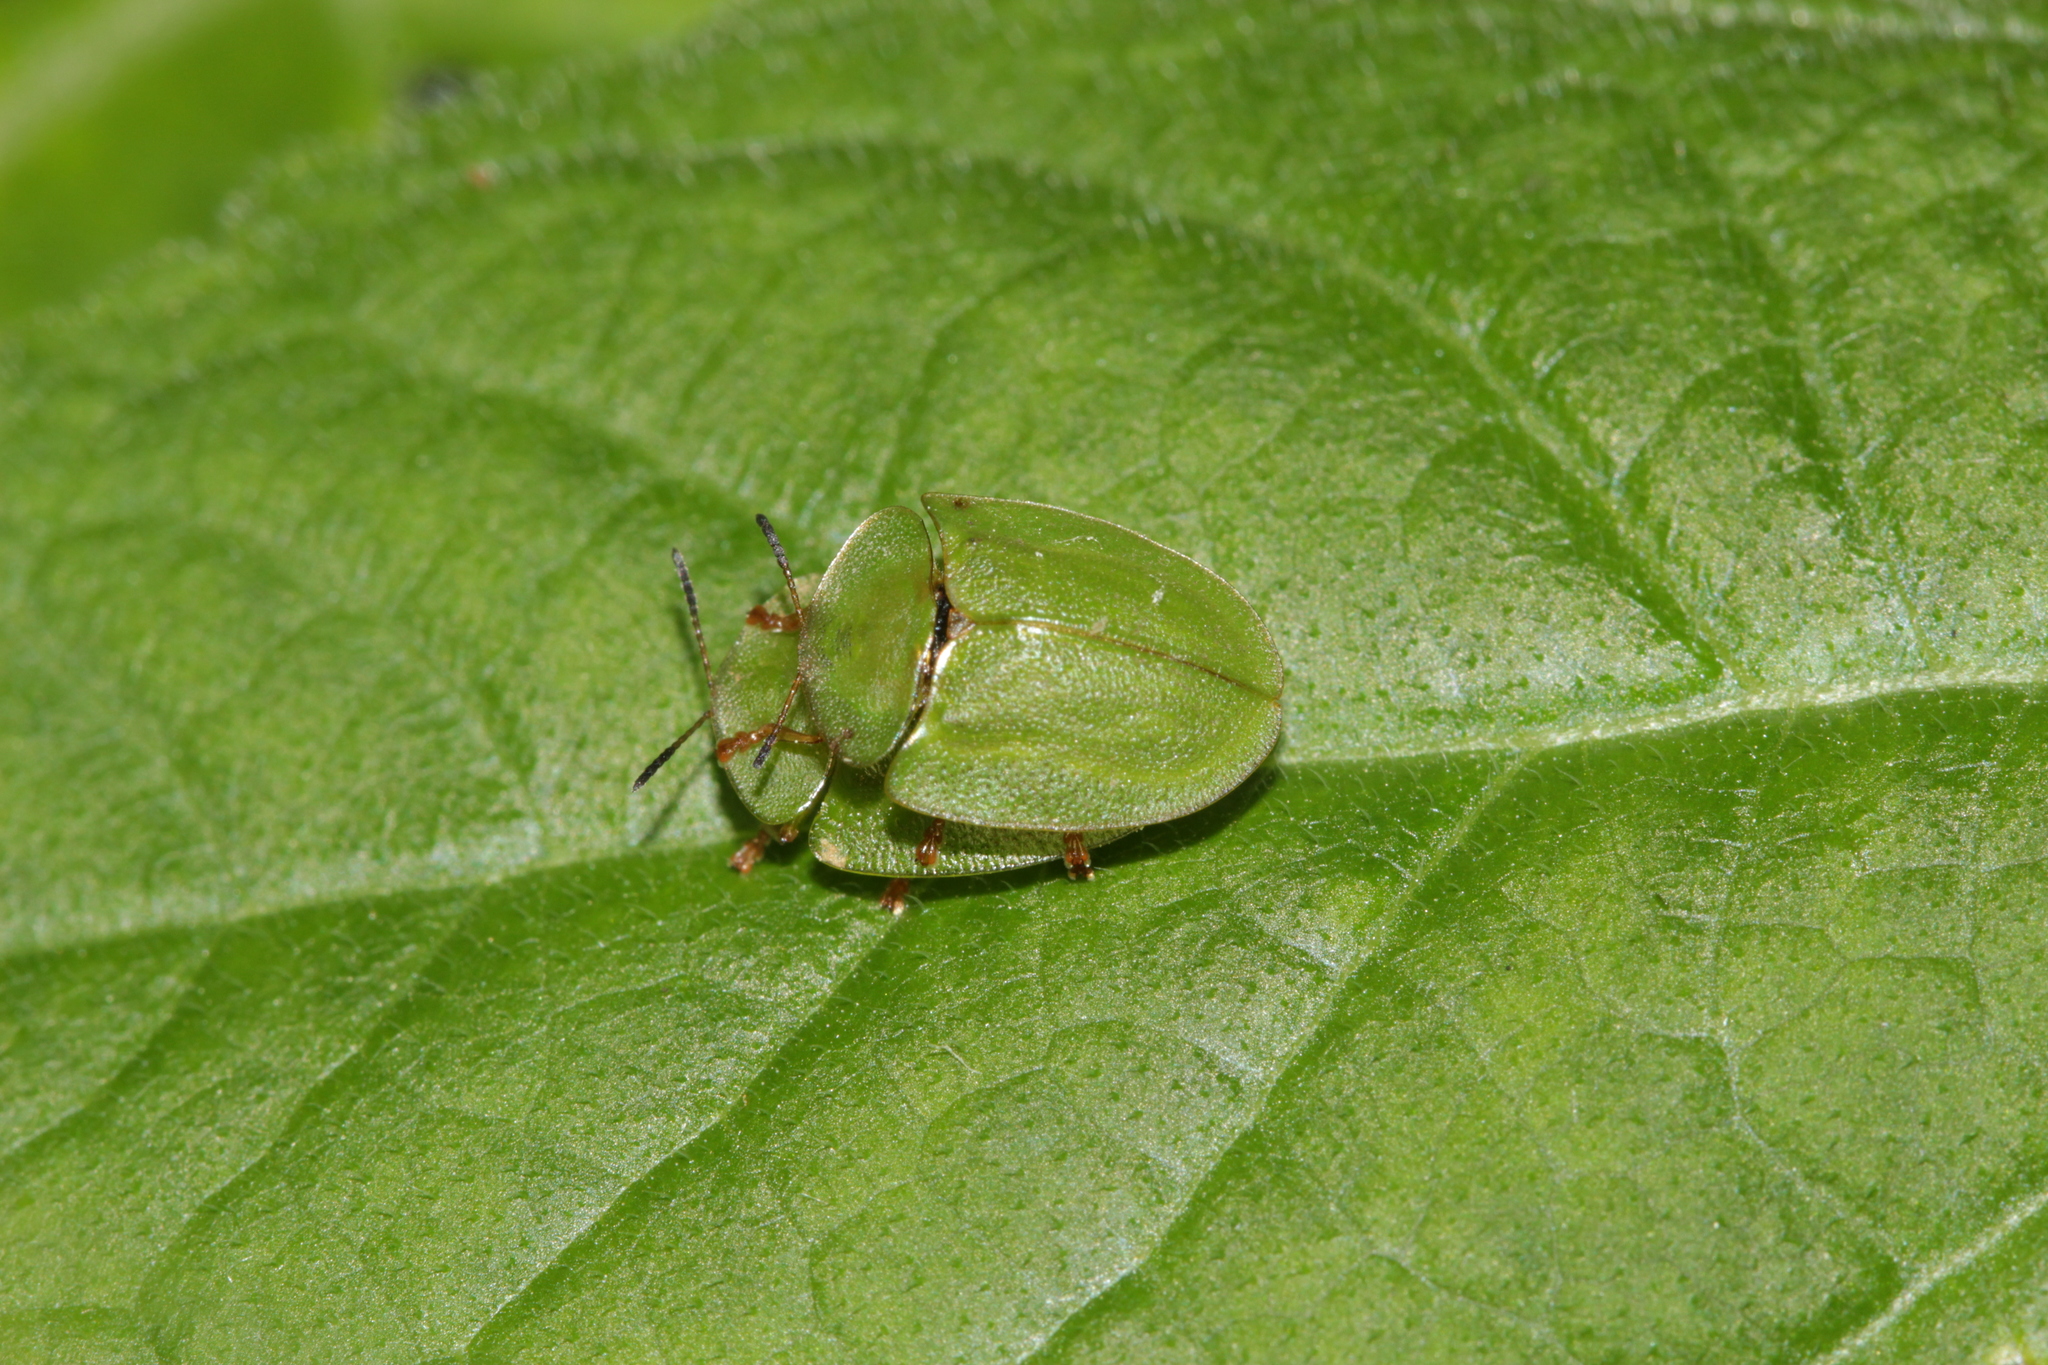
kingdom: Animalia
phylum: Arthropoda
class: Insecta
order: Coleoptera
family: Chrysomelidae
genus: Cassida
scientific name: Cassida viridis
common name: Green tortoise beetle
